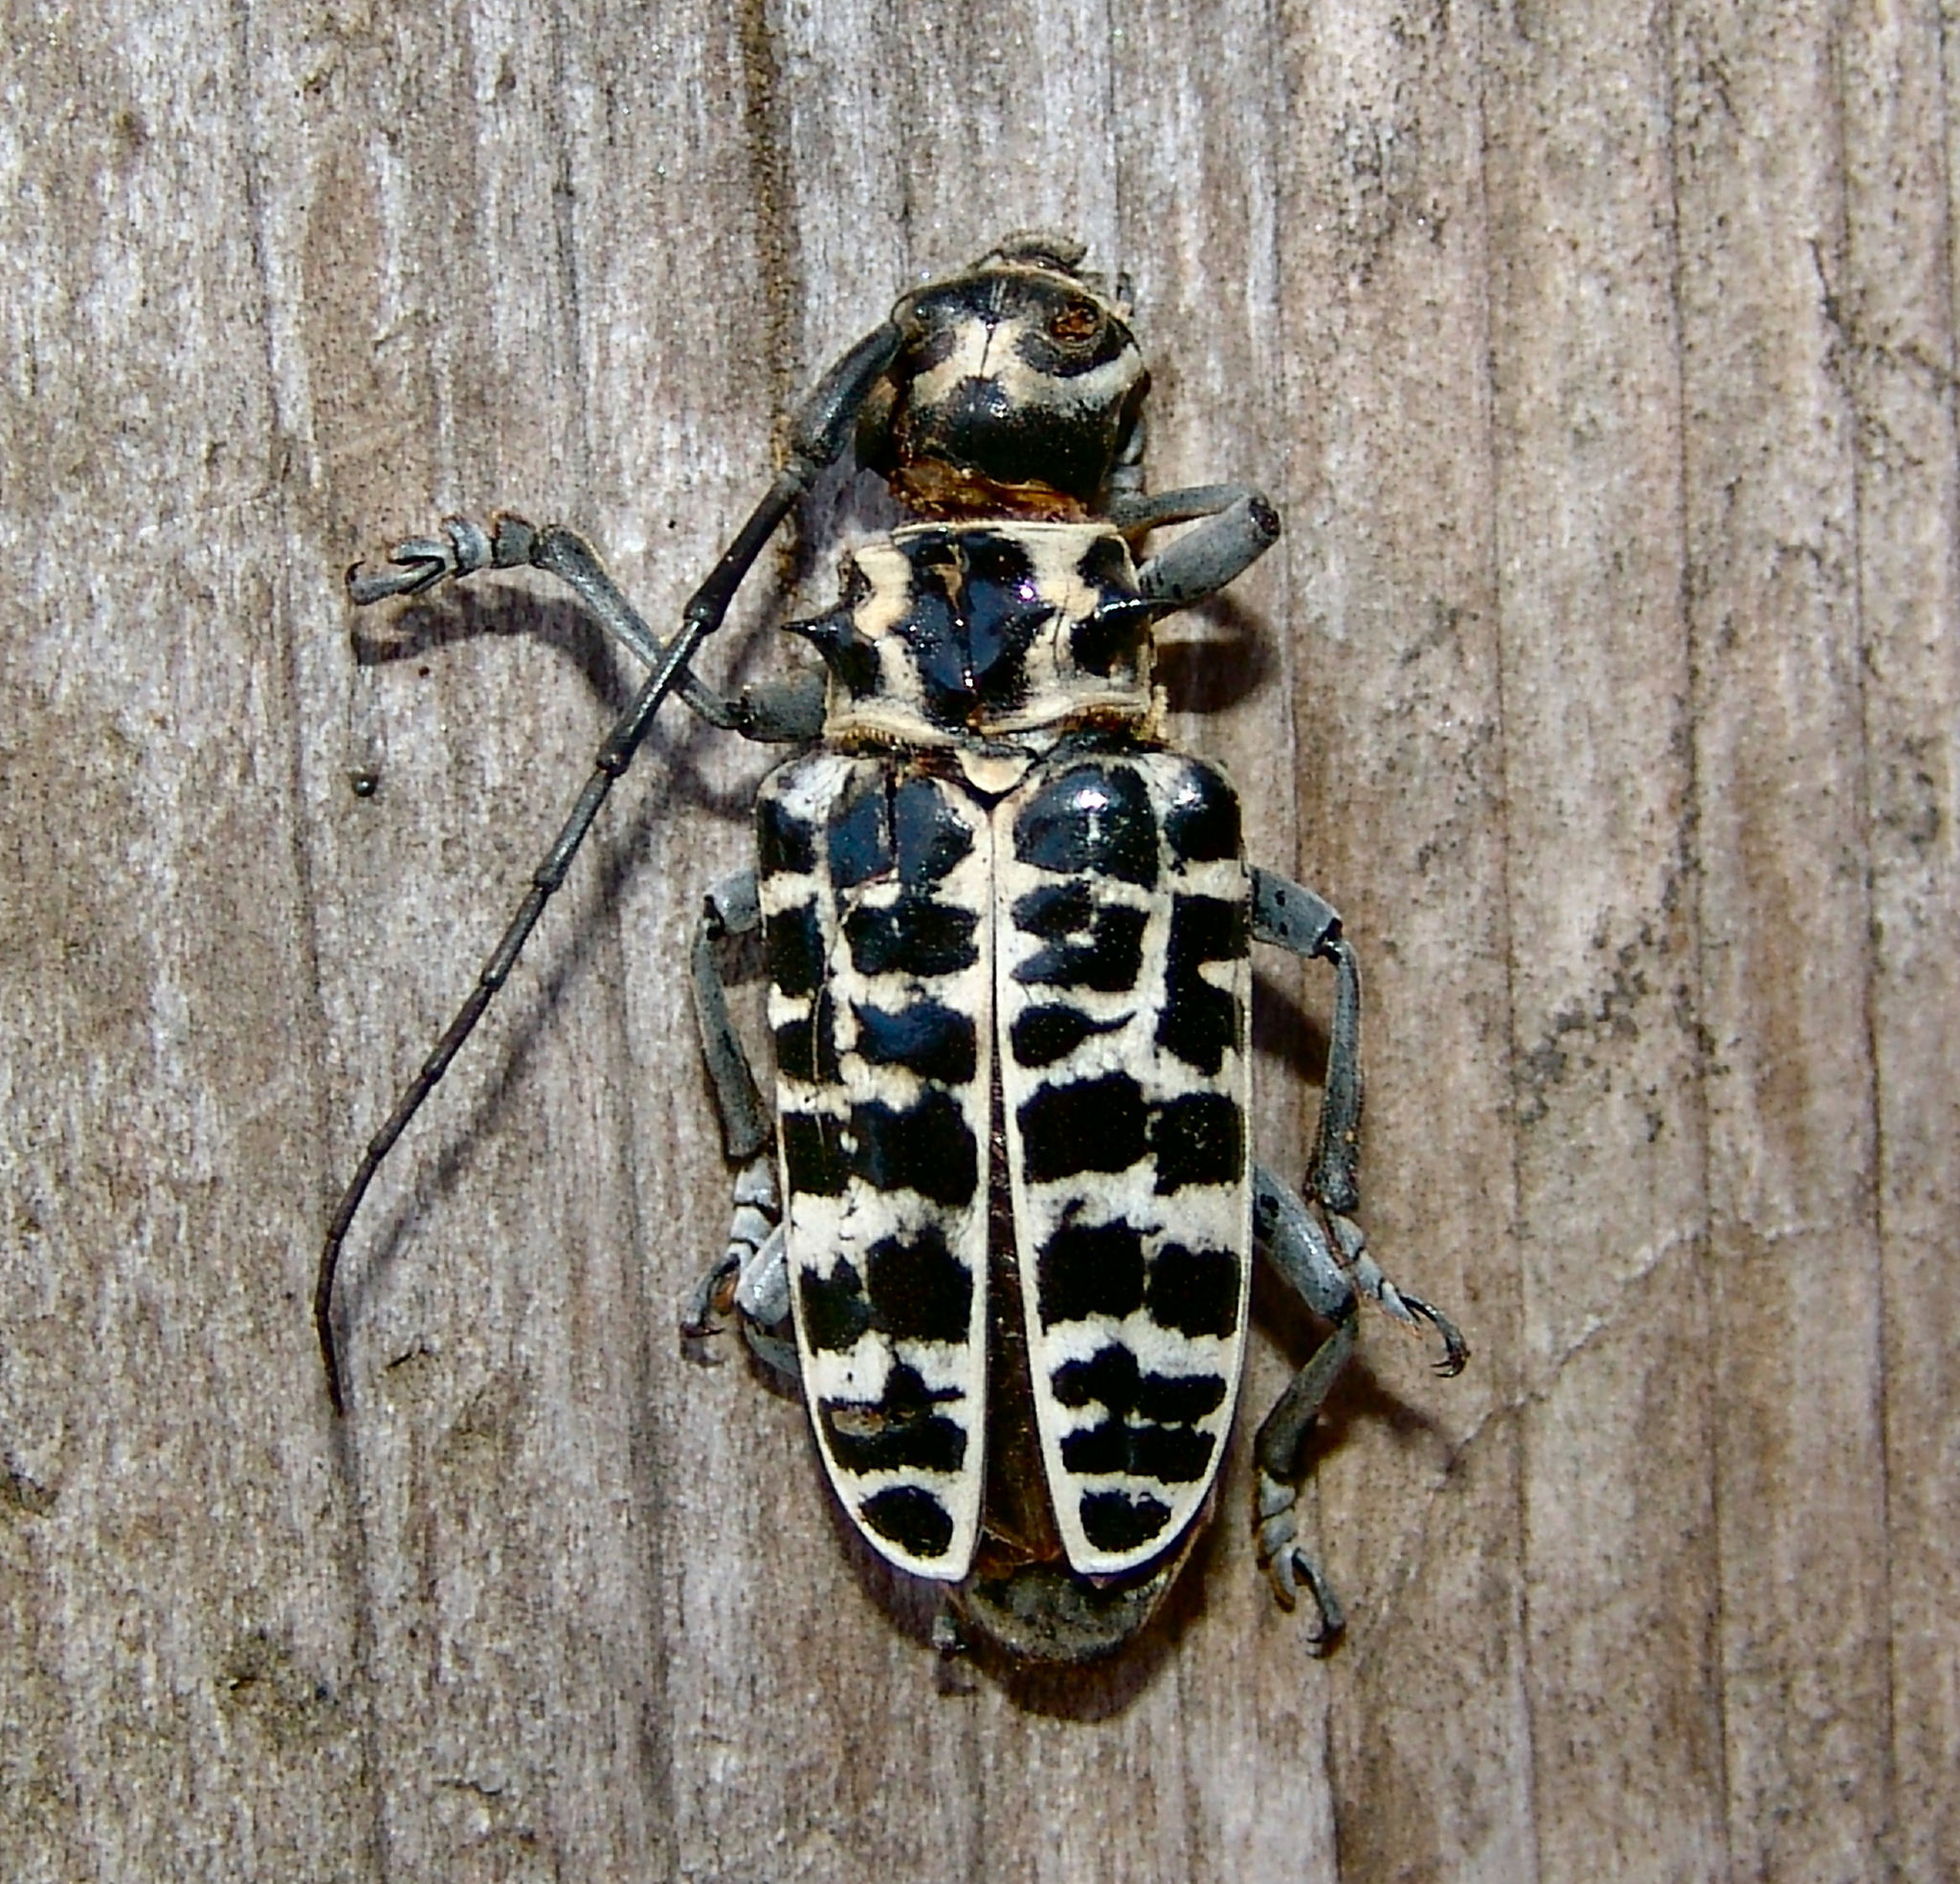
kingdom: Animalia
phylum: Arthropoda
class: Insecta
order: Coleoptera
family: Cerambycidae
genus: Plectrodera
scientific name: Plectrodera scalator
